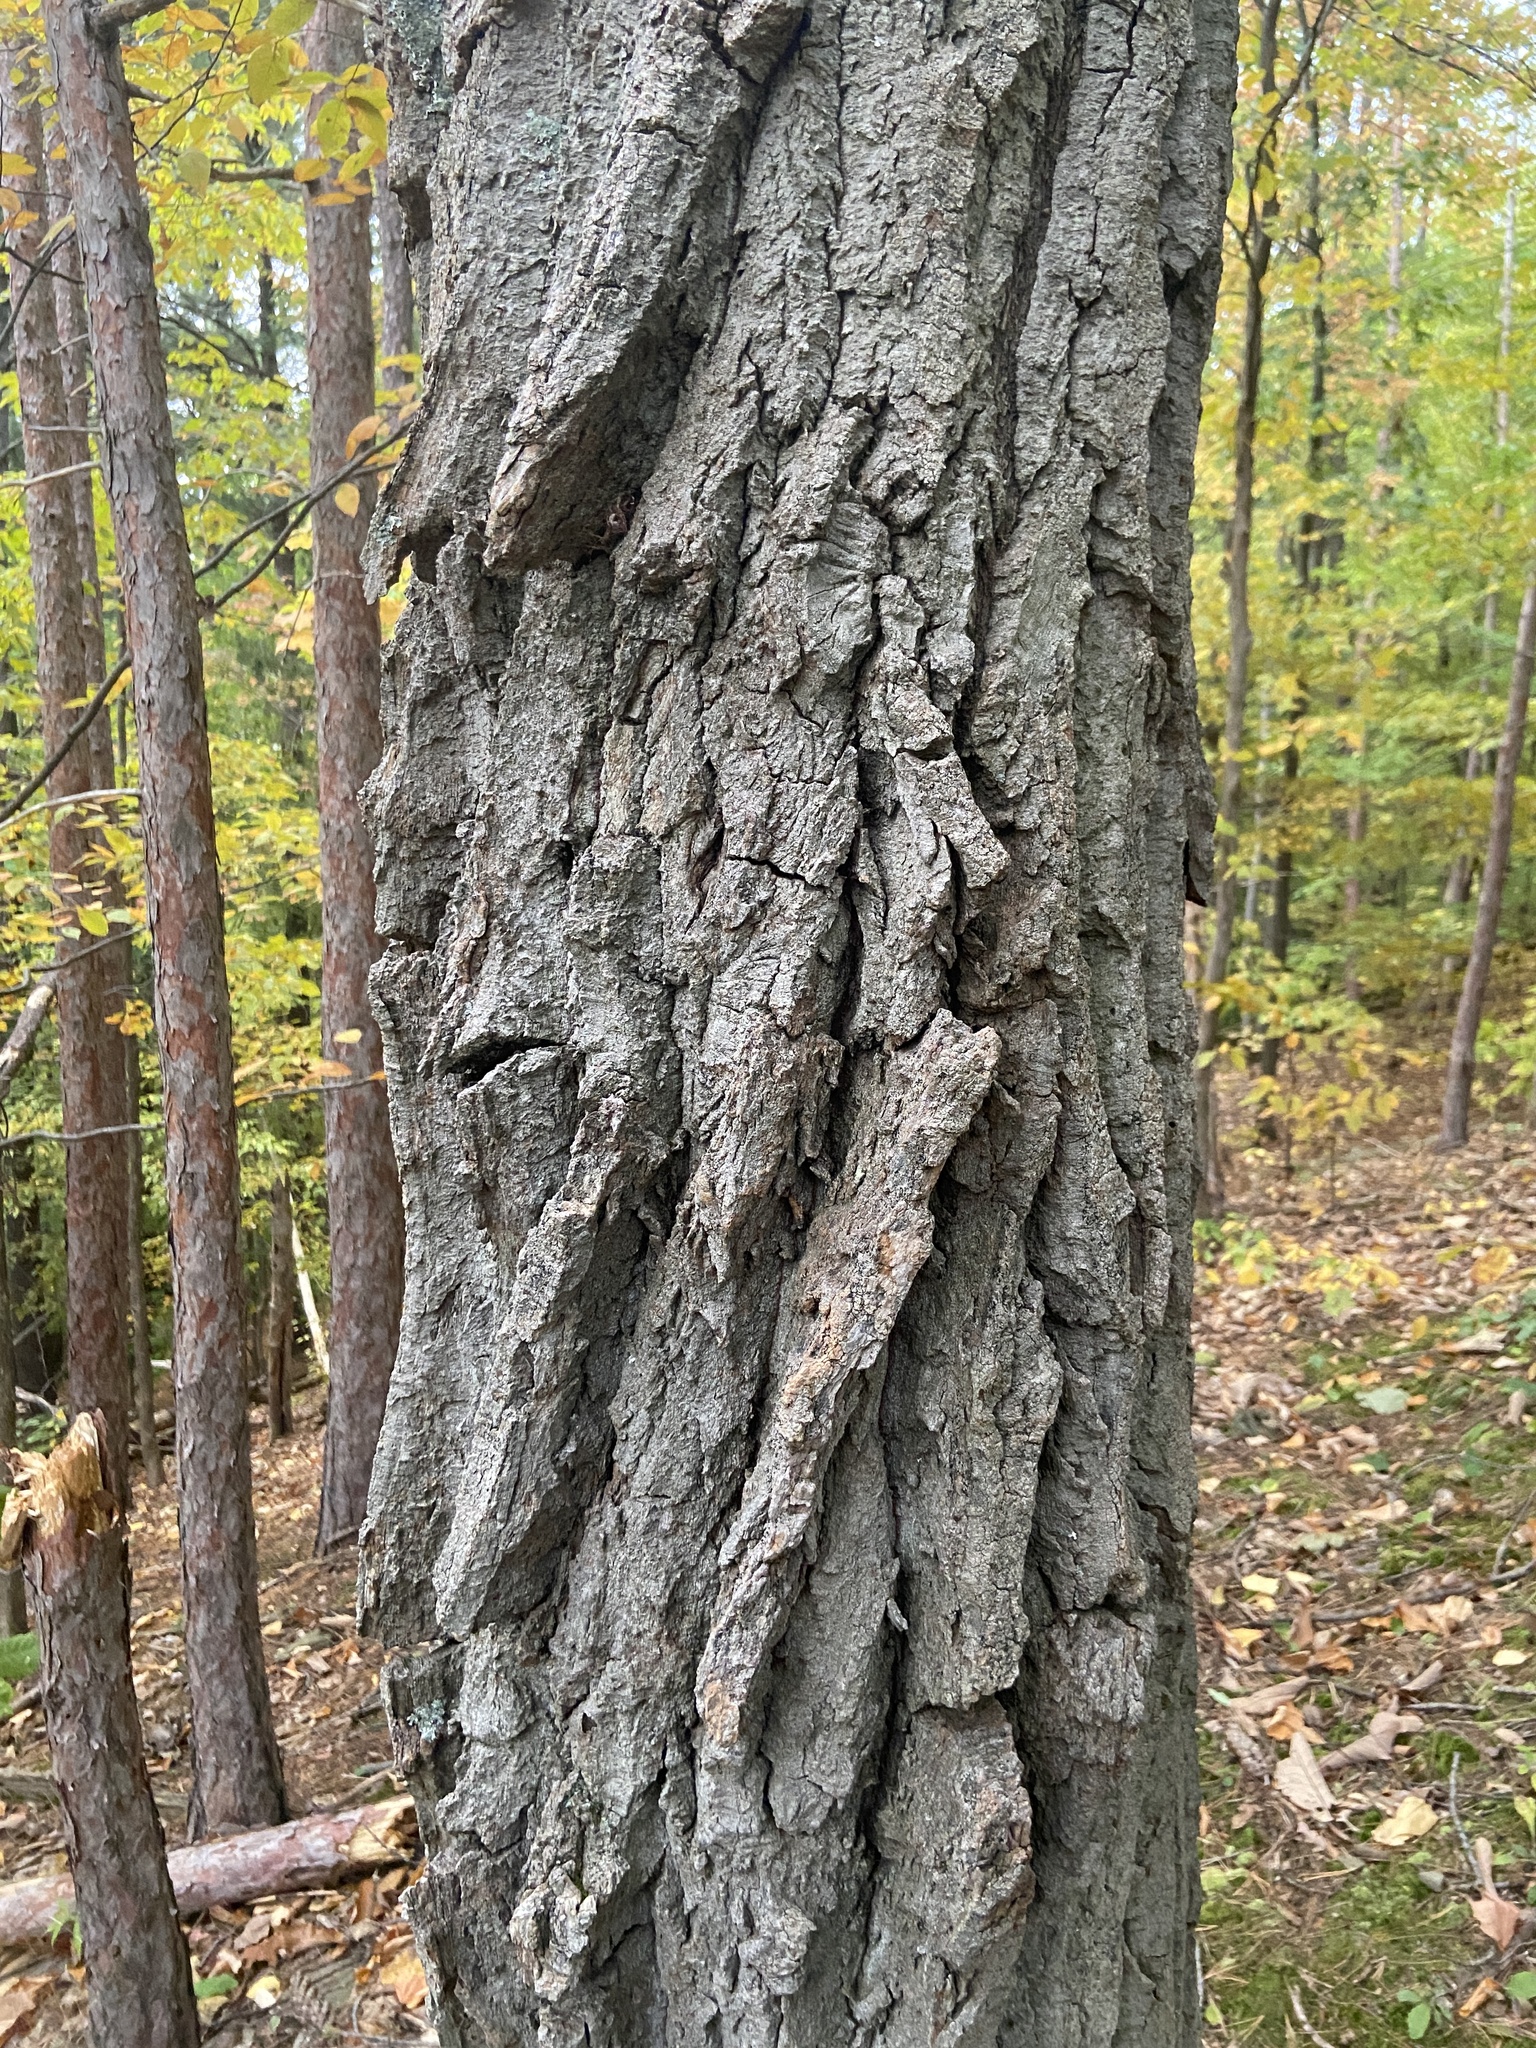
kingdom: Plantae
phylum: Tracheophyta
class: Magnoliopsida
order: Malpighiales
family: Salicaceae
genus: Populus
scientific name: Populus grandidentata
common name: Bigtooth aspen
